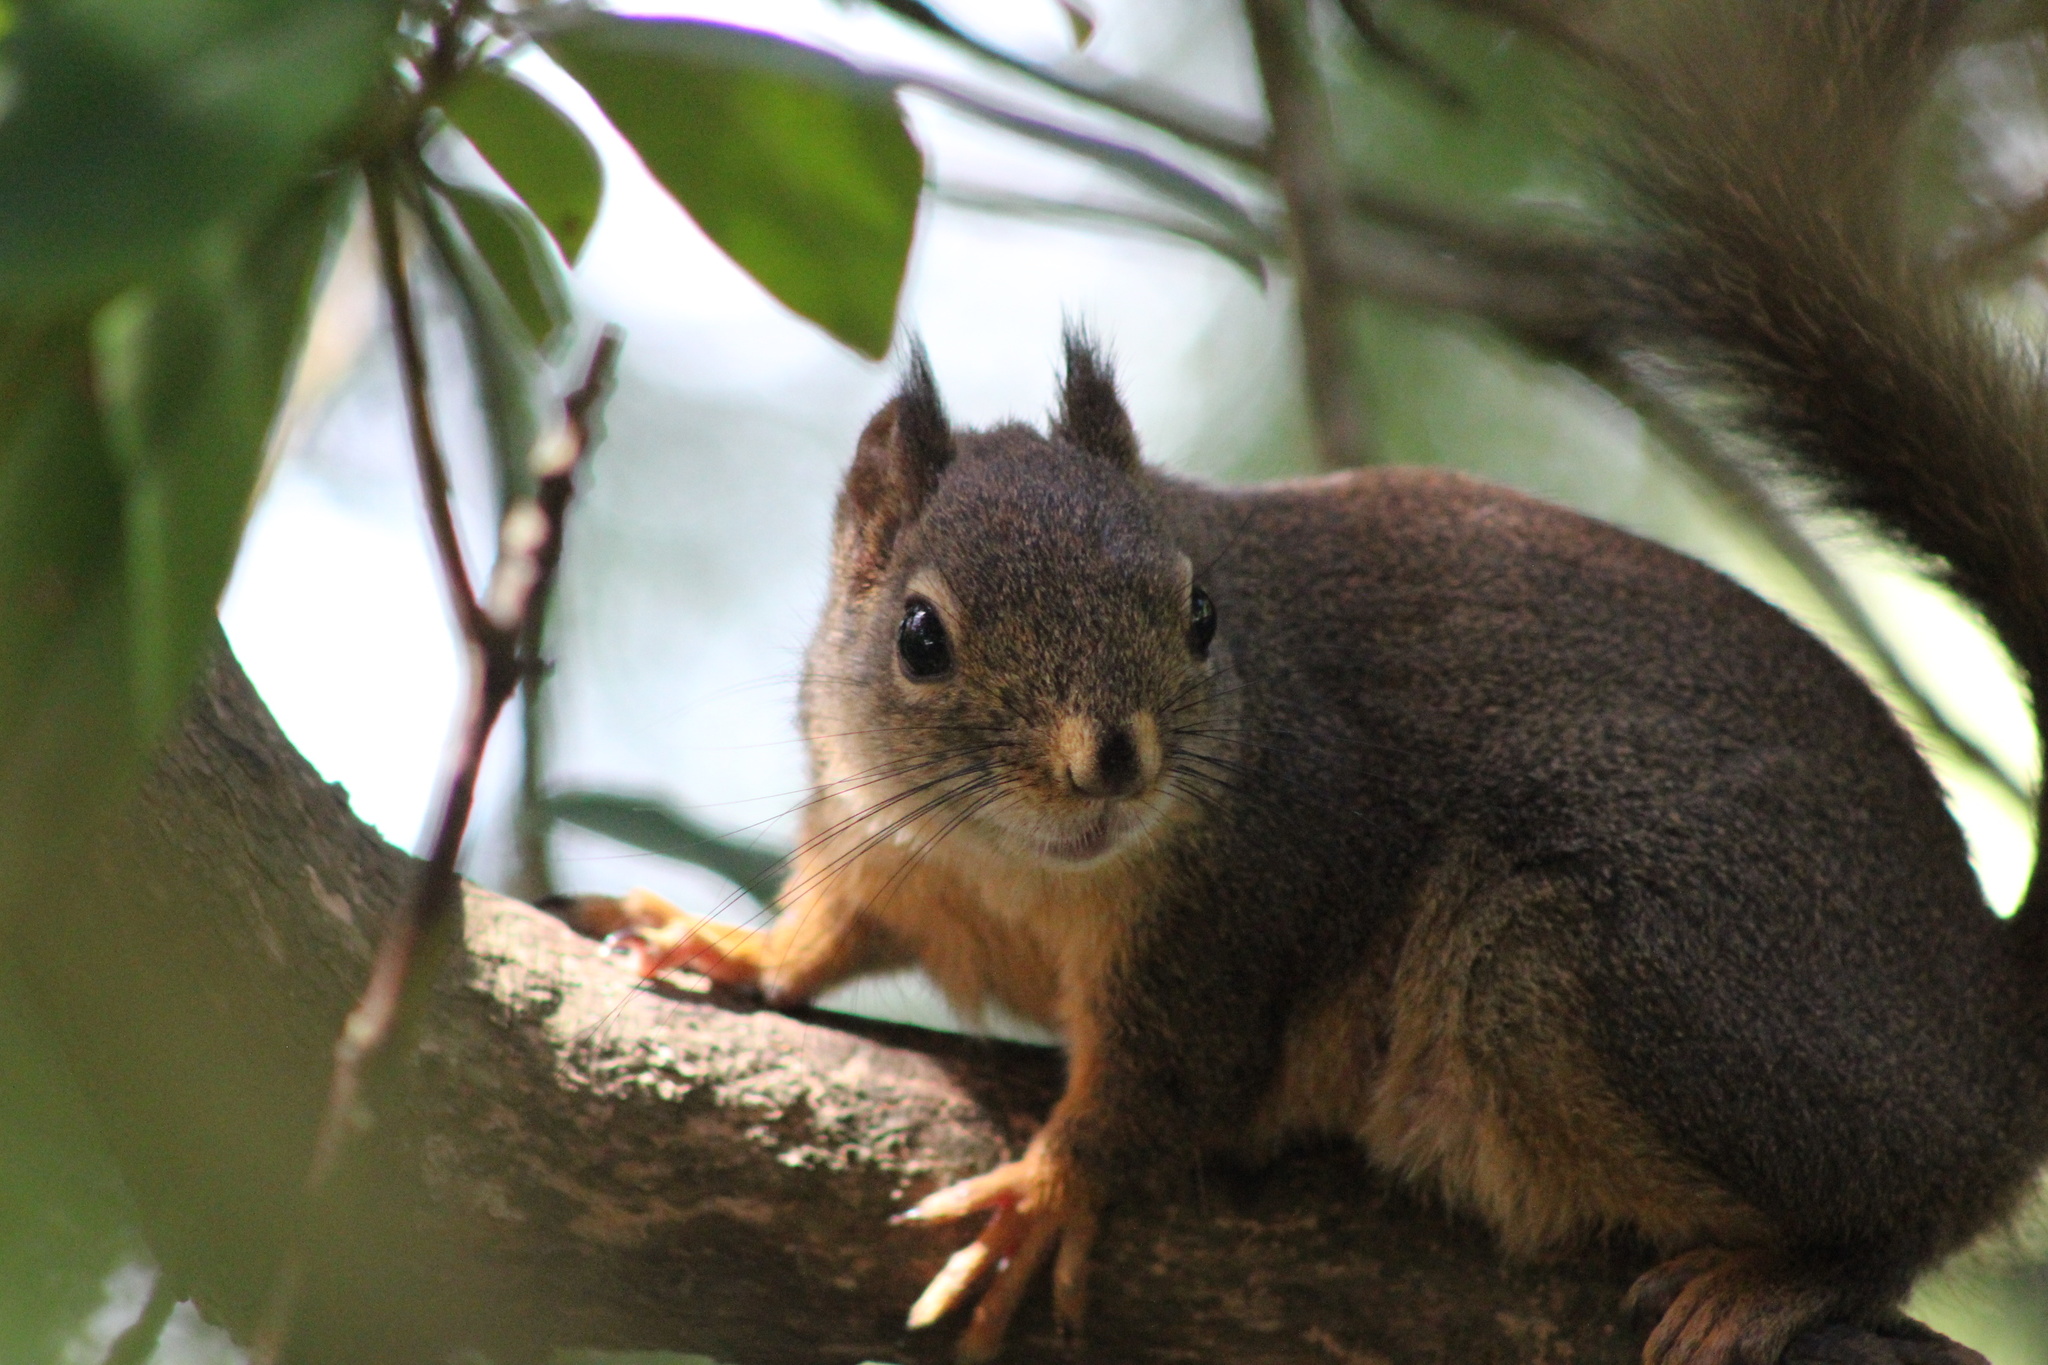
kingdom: Animalia
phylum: Chordata
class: Mammalia
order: Rodentia
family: Sciuridae
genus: Tamiasciurus
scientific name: Tamiasciurus douglasii
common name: Douglas's squirrel
